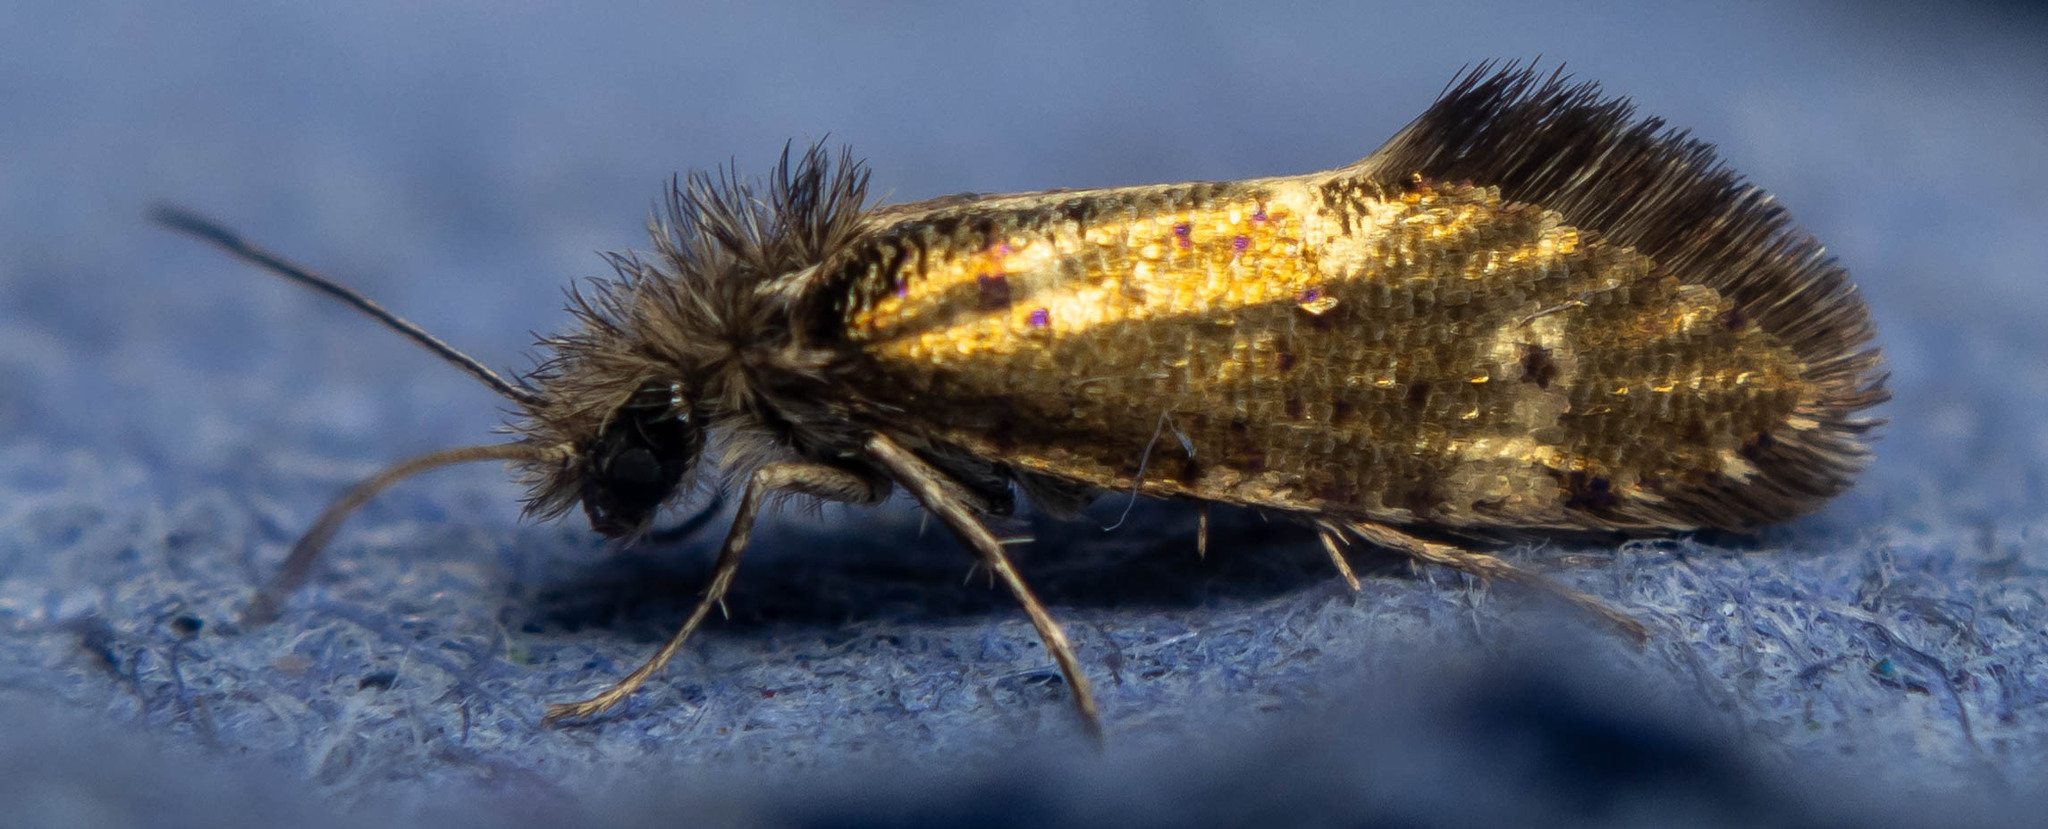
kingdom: Animalia
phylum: Arthropoda
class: Insecta
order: Lepidoptera
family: Eriocraniidae
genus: Dyseriocrania
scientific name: Dyseriocrania subpurpurella
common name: Common oak purple
